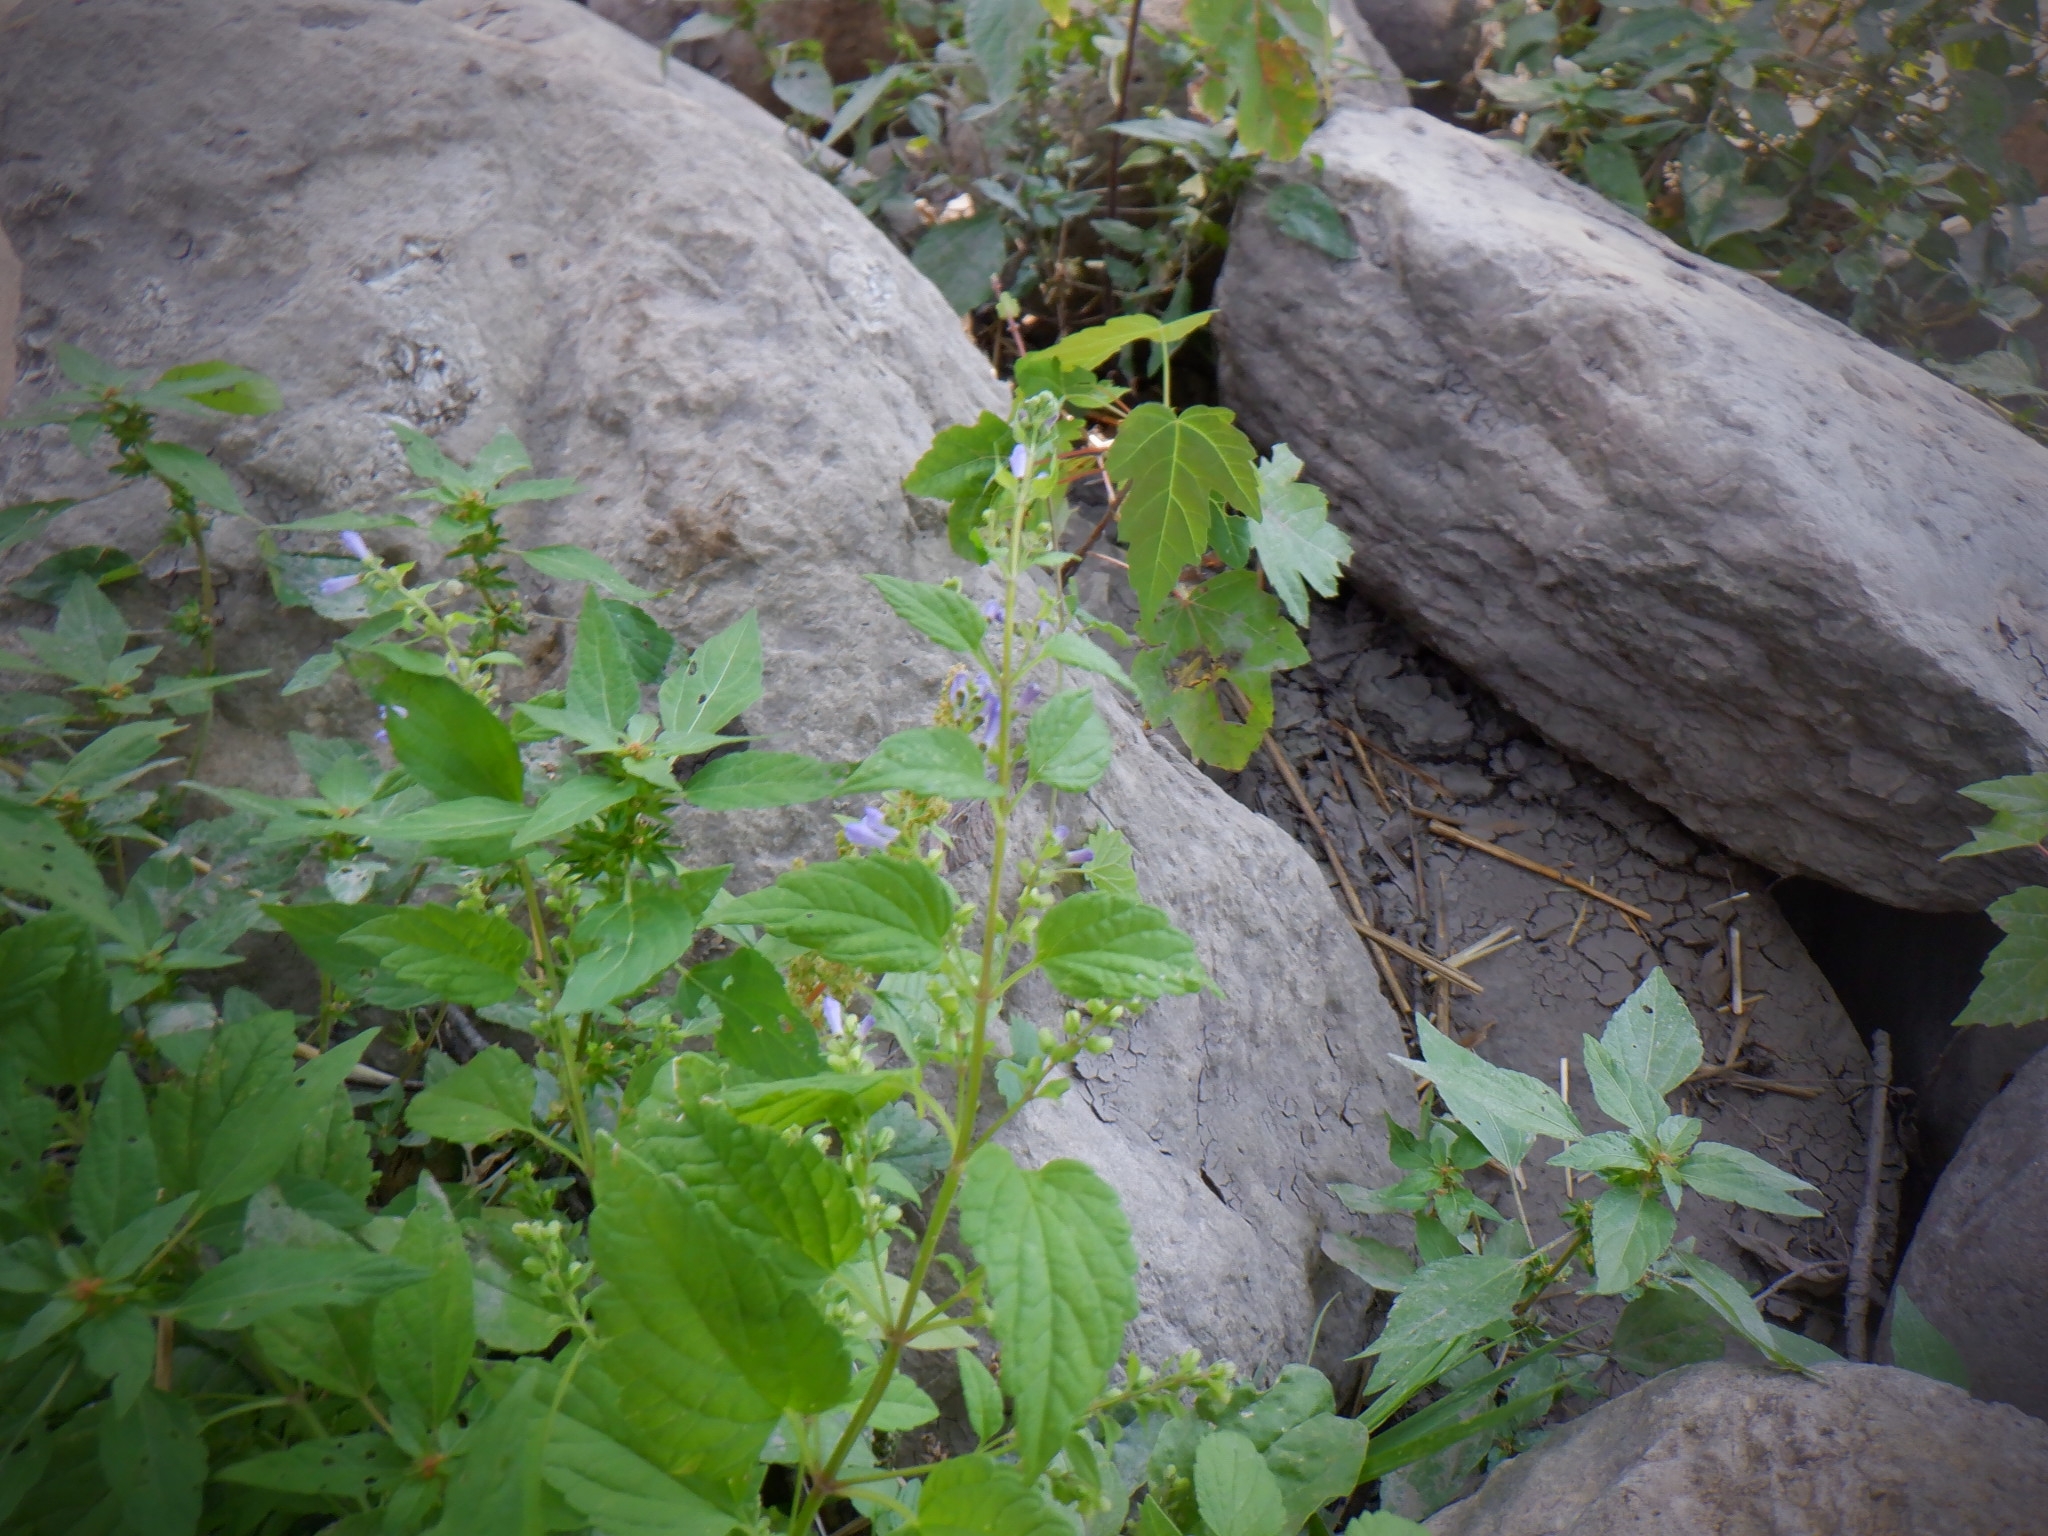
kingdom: Plantae
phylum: Tracheophyta
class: Magnoliopsida
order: Lamiales
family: Lamiaceae
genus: Scutellaria
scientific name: Scutellaria lateriflora
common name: Blue skullcap
